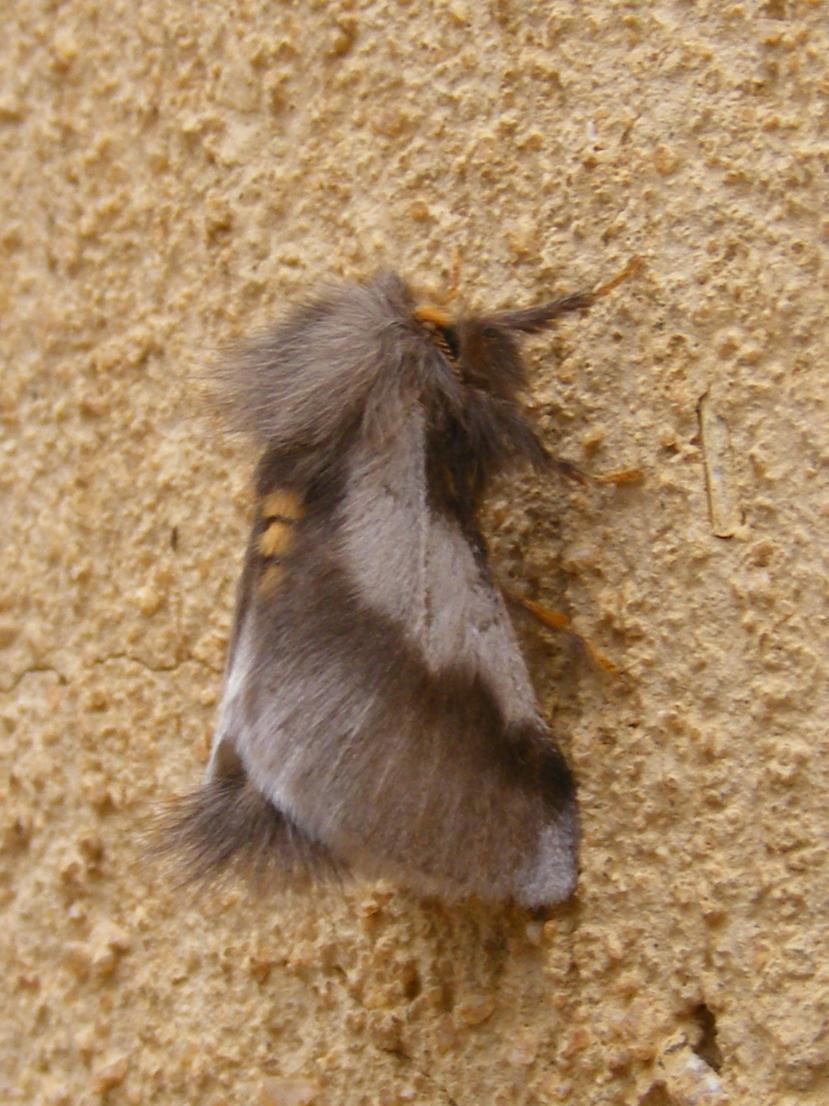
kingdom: Animalia
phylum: Arthropoda
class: Insecta
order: Lepidoptera
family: Notodontidae
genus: Thaumetopoea
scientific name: Thaumetopoea apologetica
